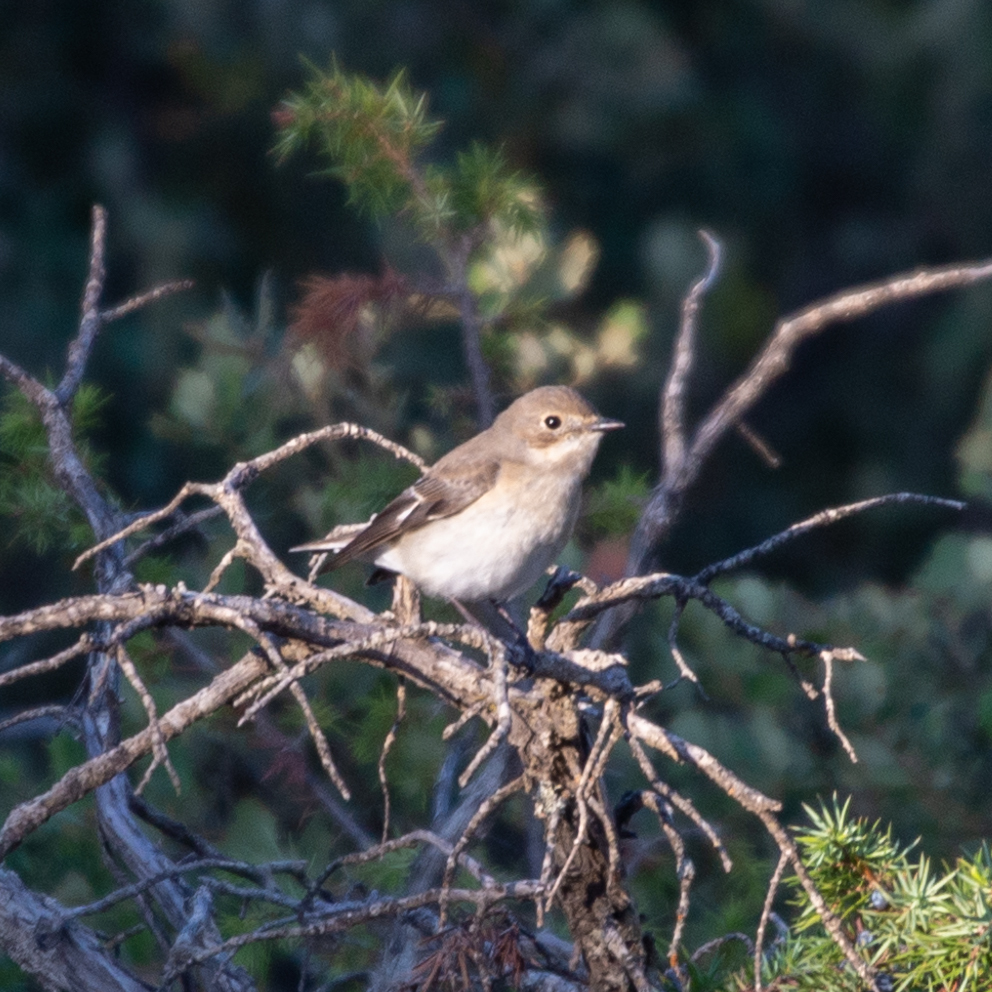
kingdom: Animalia
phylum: Chordata
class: Aves
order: Passeriformes
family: Muscicapidae
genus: Ficedula
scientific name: Ficedula hypoleuca
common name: European pied flycatcher
